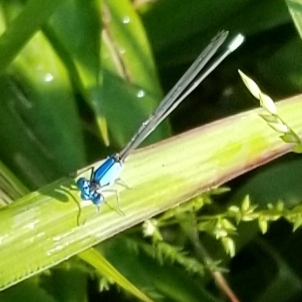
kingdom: Animalia
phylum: Arthropoda
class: Insecta
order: Odonata
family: Coenagrionidae
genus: Argia
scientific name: Argia apicalis
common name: Blue-fronted dancer
